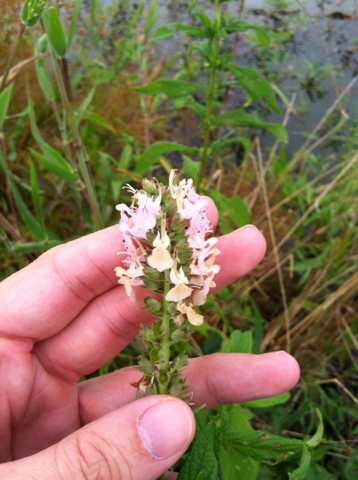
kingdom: Plantae
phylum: Tracheophyta
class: Magnoliopsida
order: Lamiales
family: Lamiaceae
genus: Teucrium
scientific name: Teucrium canadense
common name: American germander
